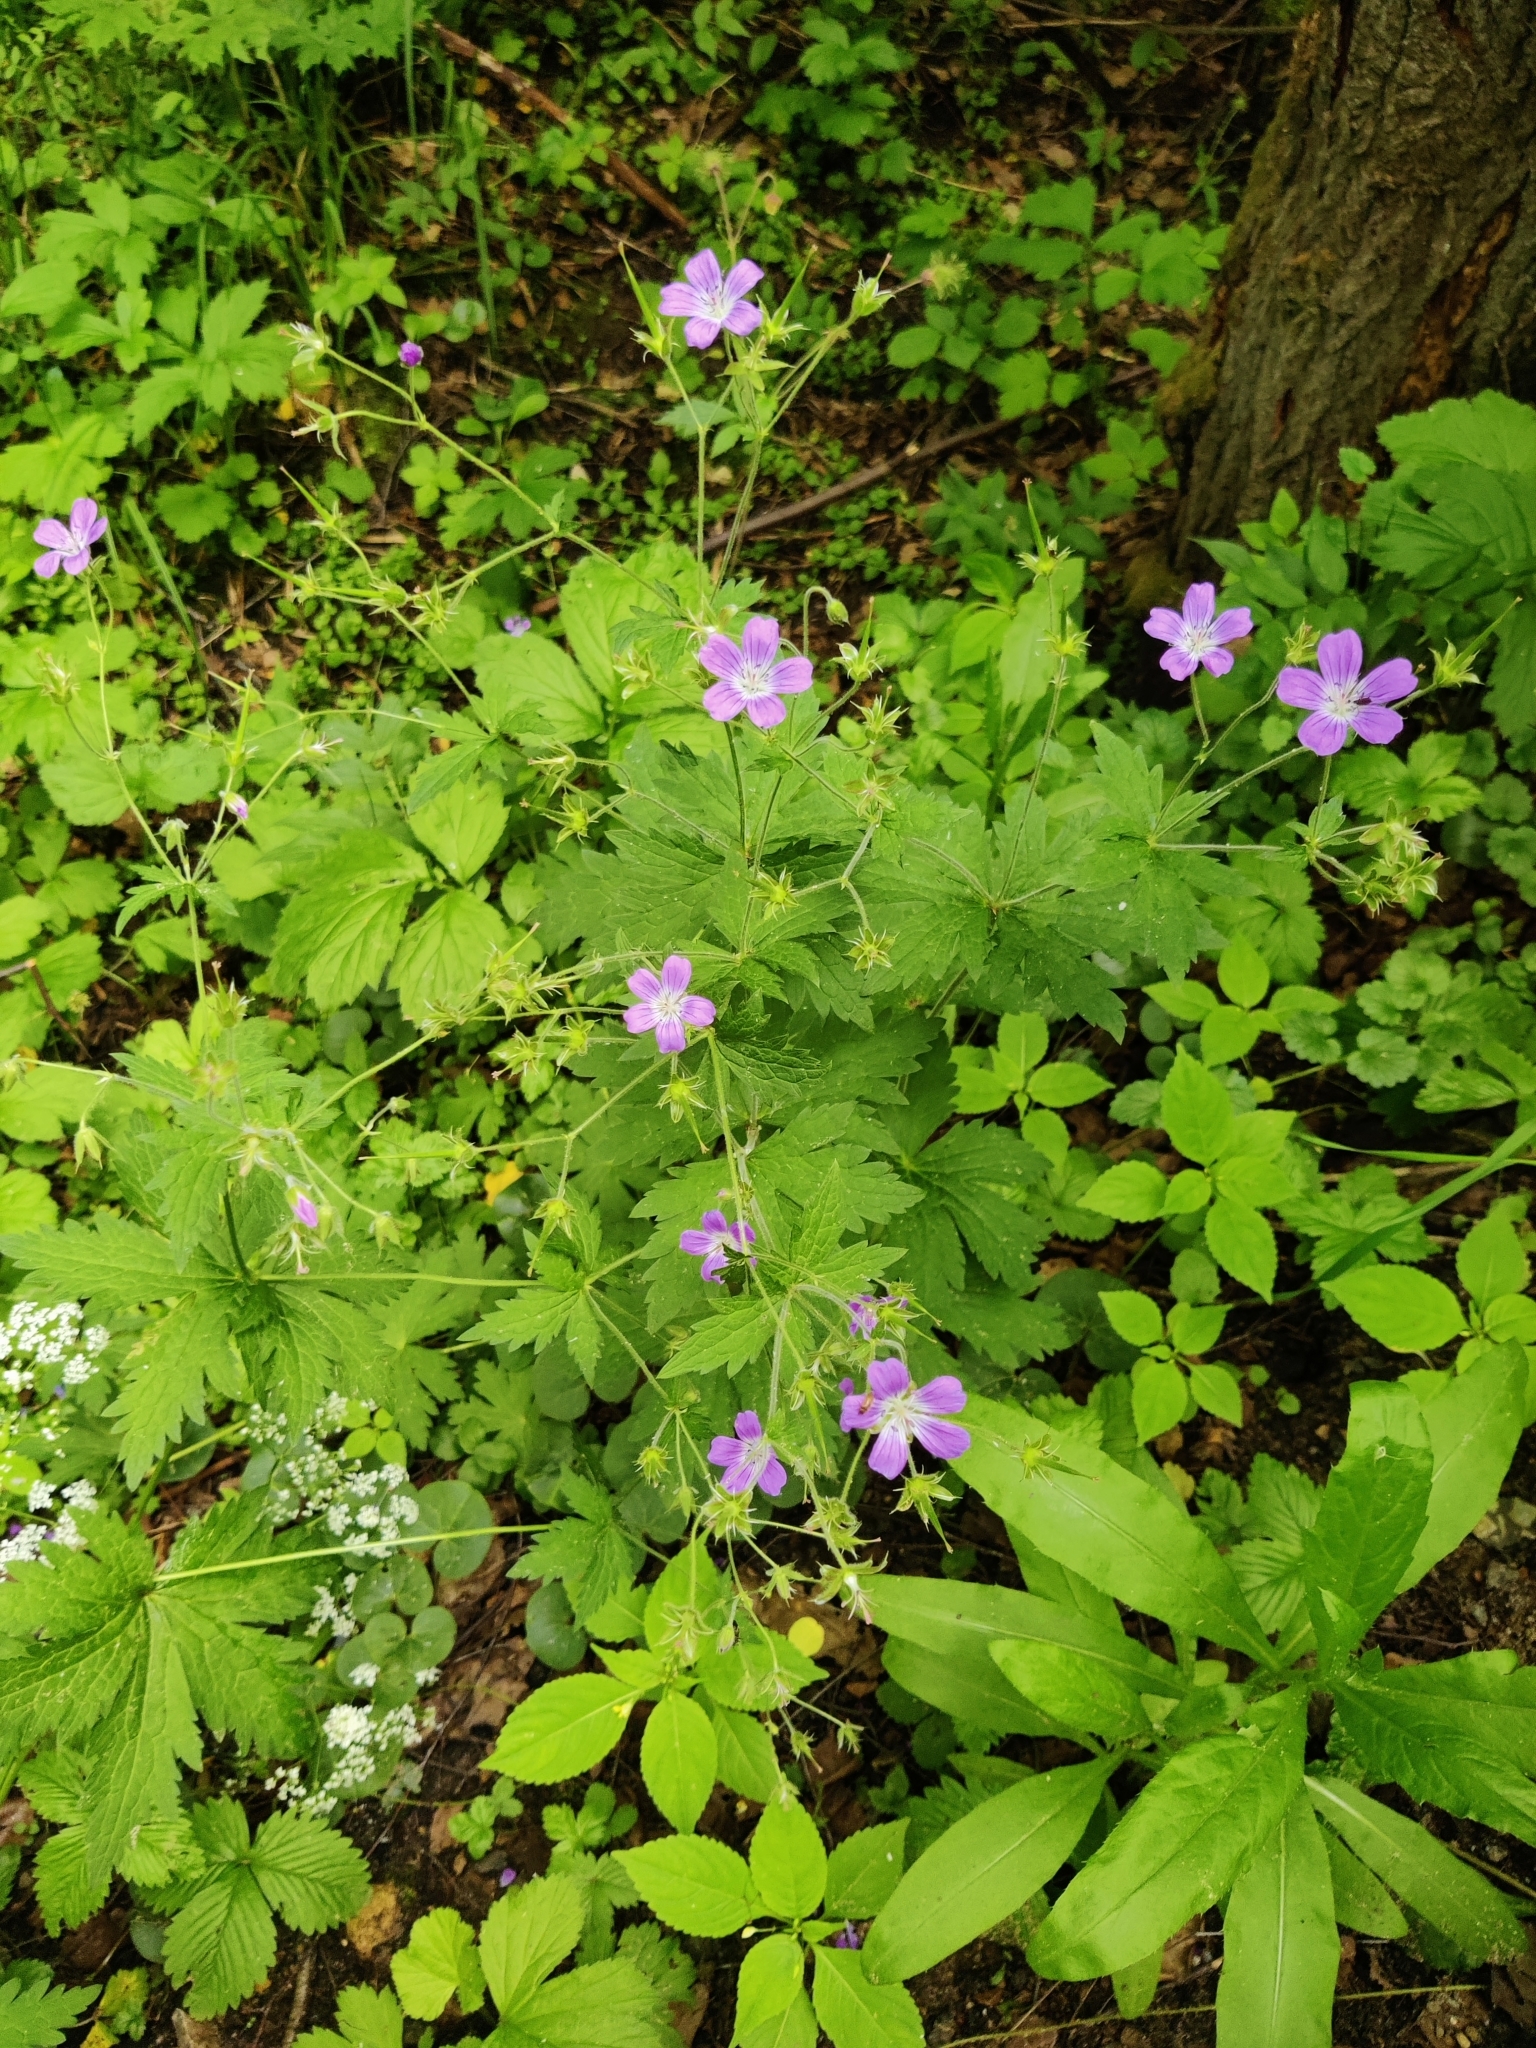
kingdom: Plantae
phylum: Tracheophyta
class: Magnoliopsida
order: Geraniales
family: Geraniaceae
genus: Geranium
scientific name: Geranium sylvaticum
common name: Wood crane's-bill
